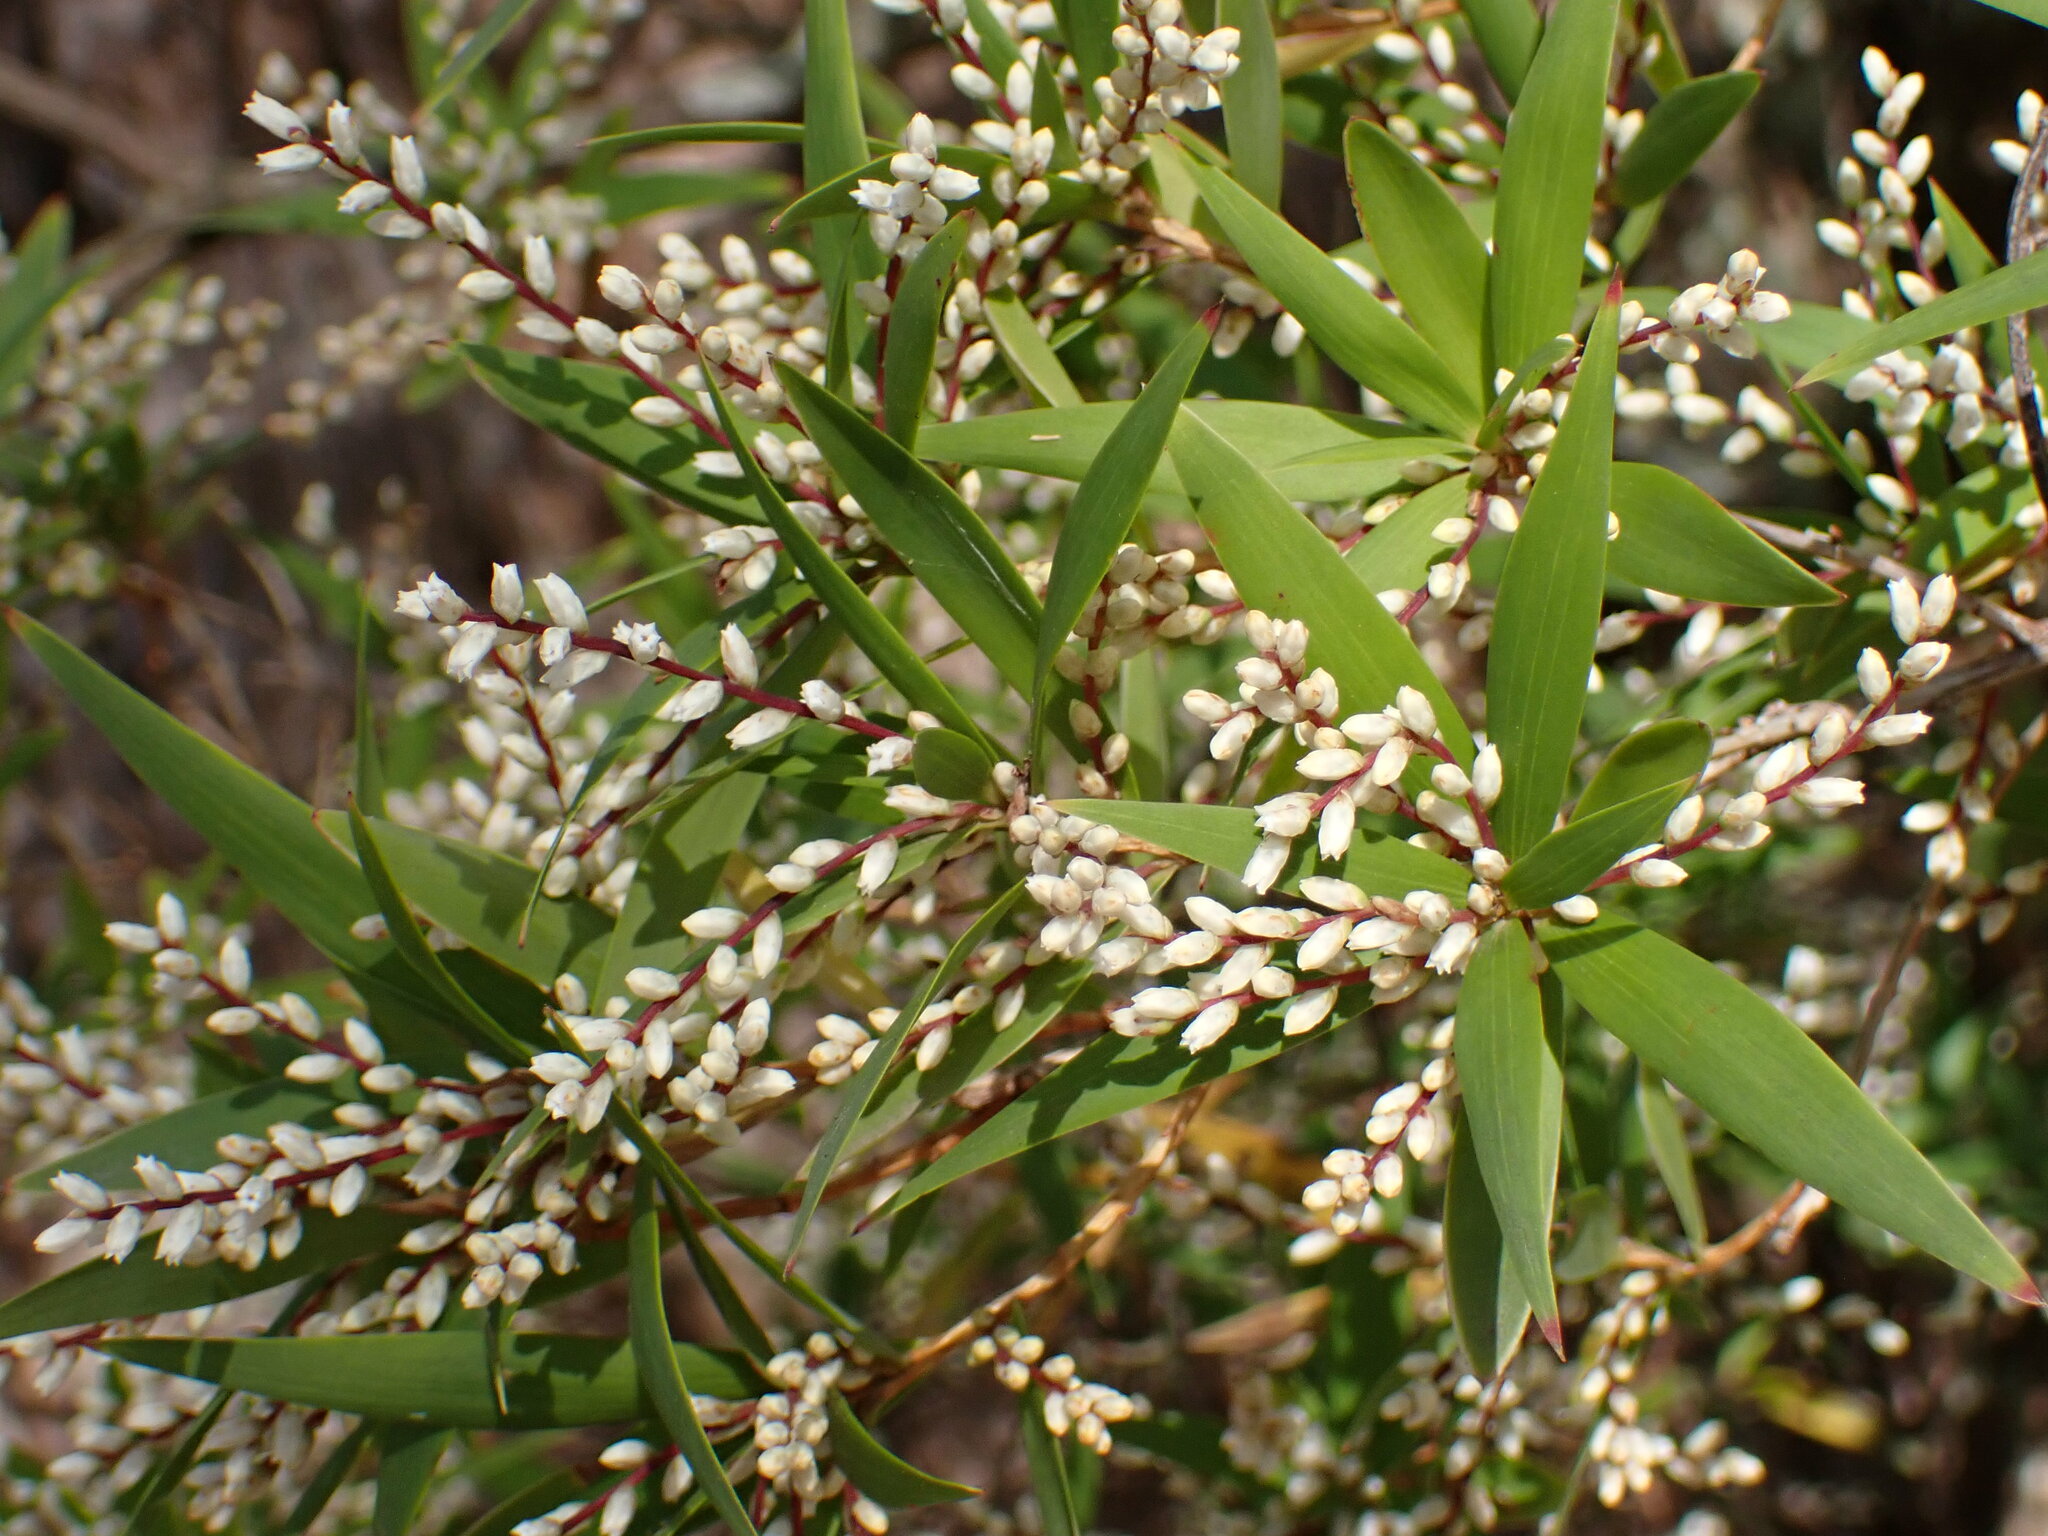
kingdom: Plantae
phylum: Tracheophyta
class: Magnoliopsida
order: Ericales
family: Ericaceae
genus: Leucopogon
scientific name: Leucopogon lanceolatus
